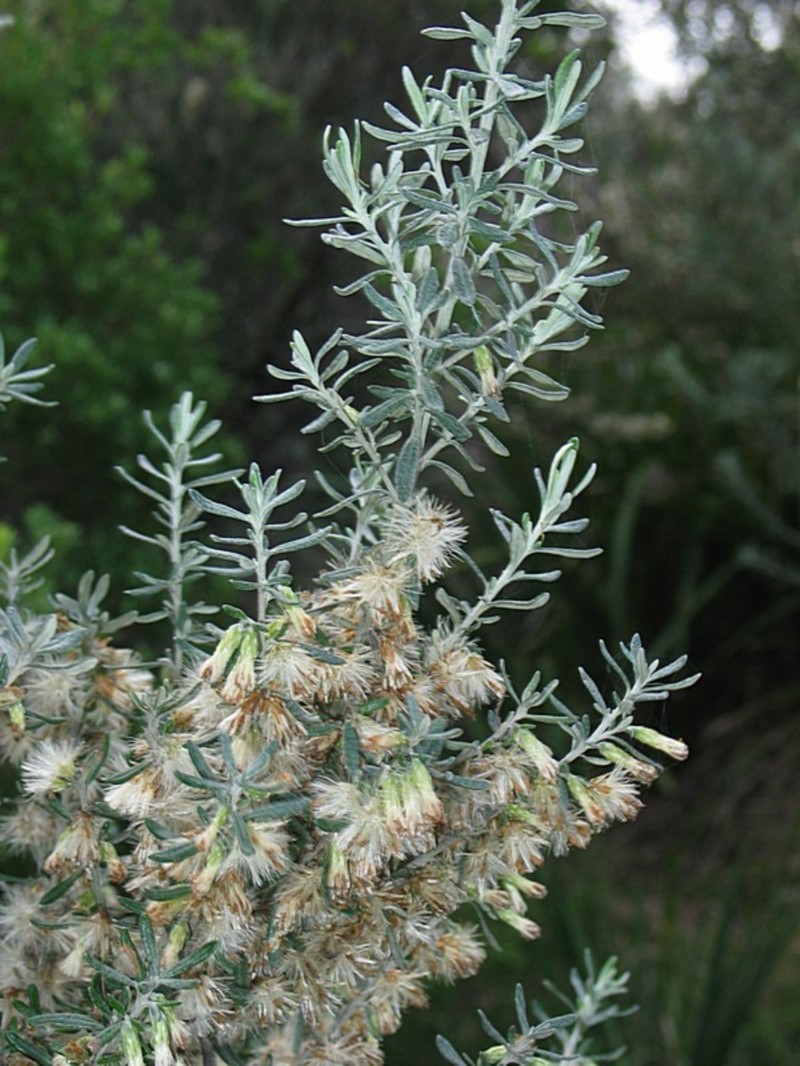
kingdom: Plantae
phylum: Tracheophyta
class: Magnoliopsida
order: Asterales
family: Asteraceae
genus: Olearia
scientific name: Olearia axillaris
